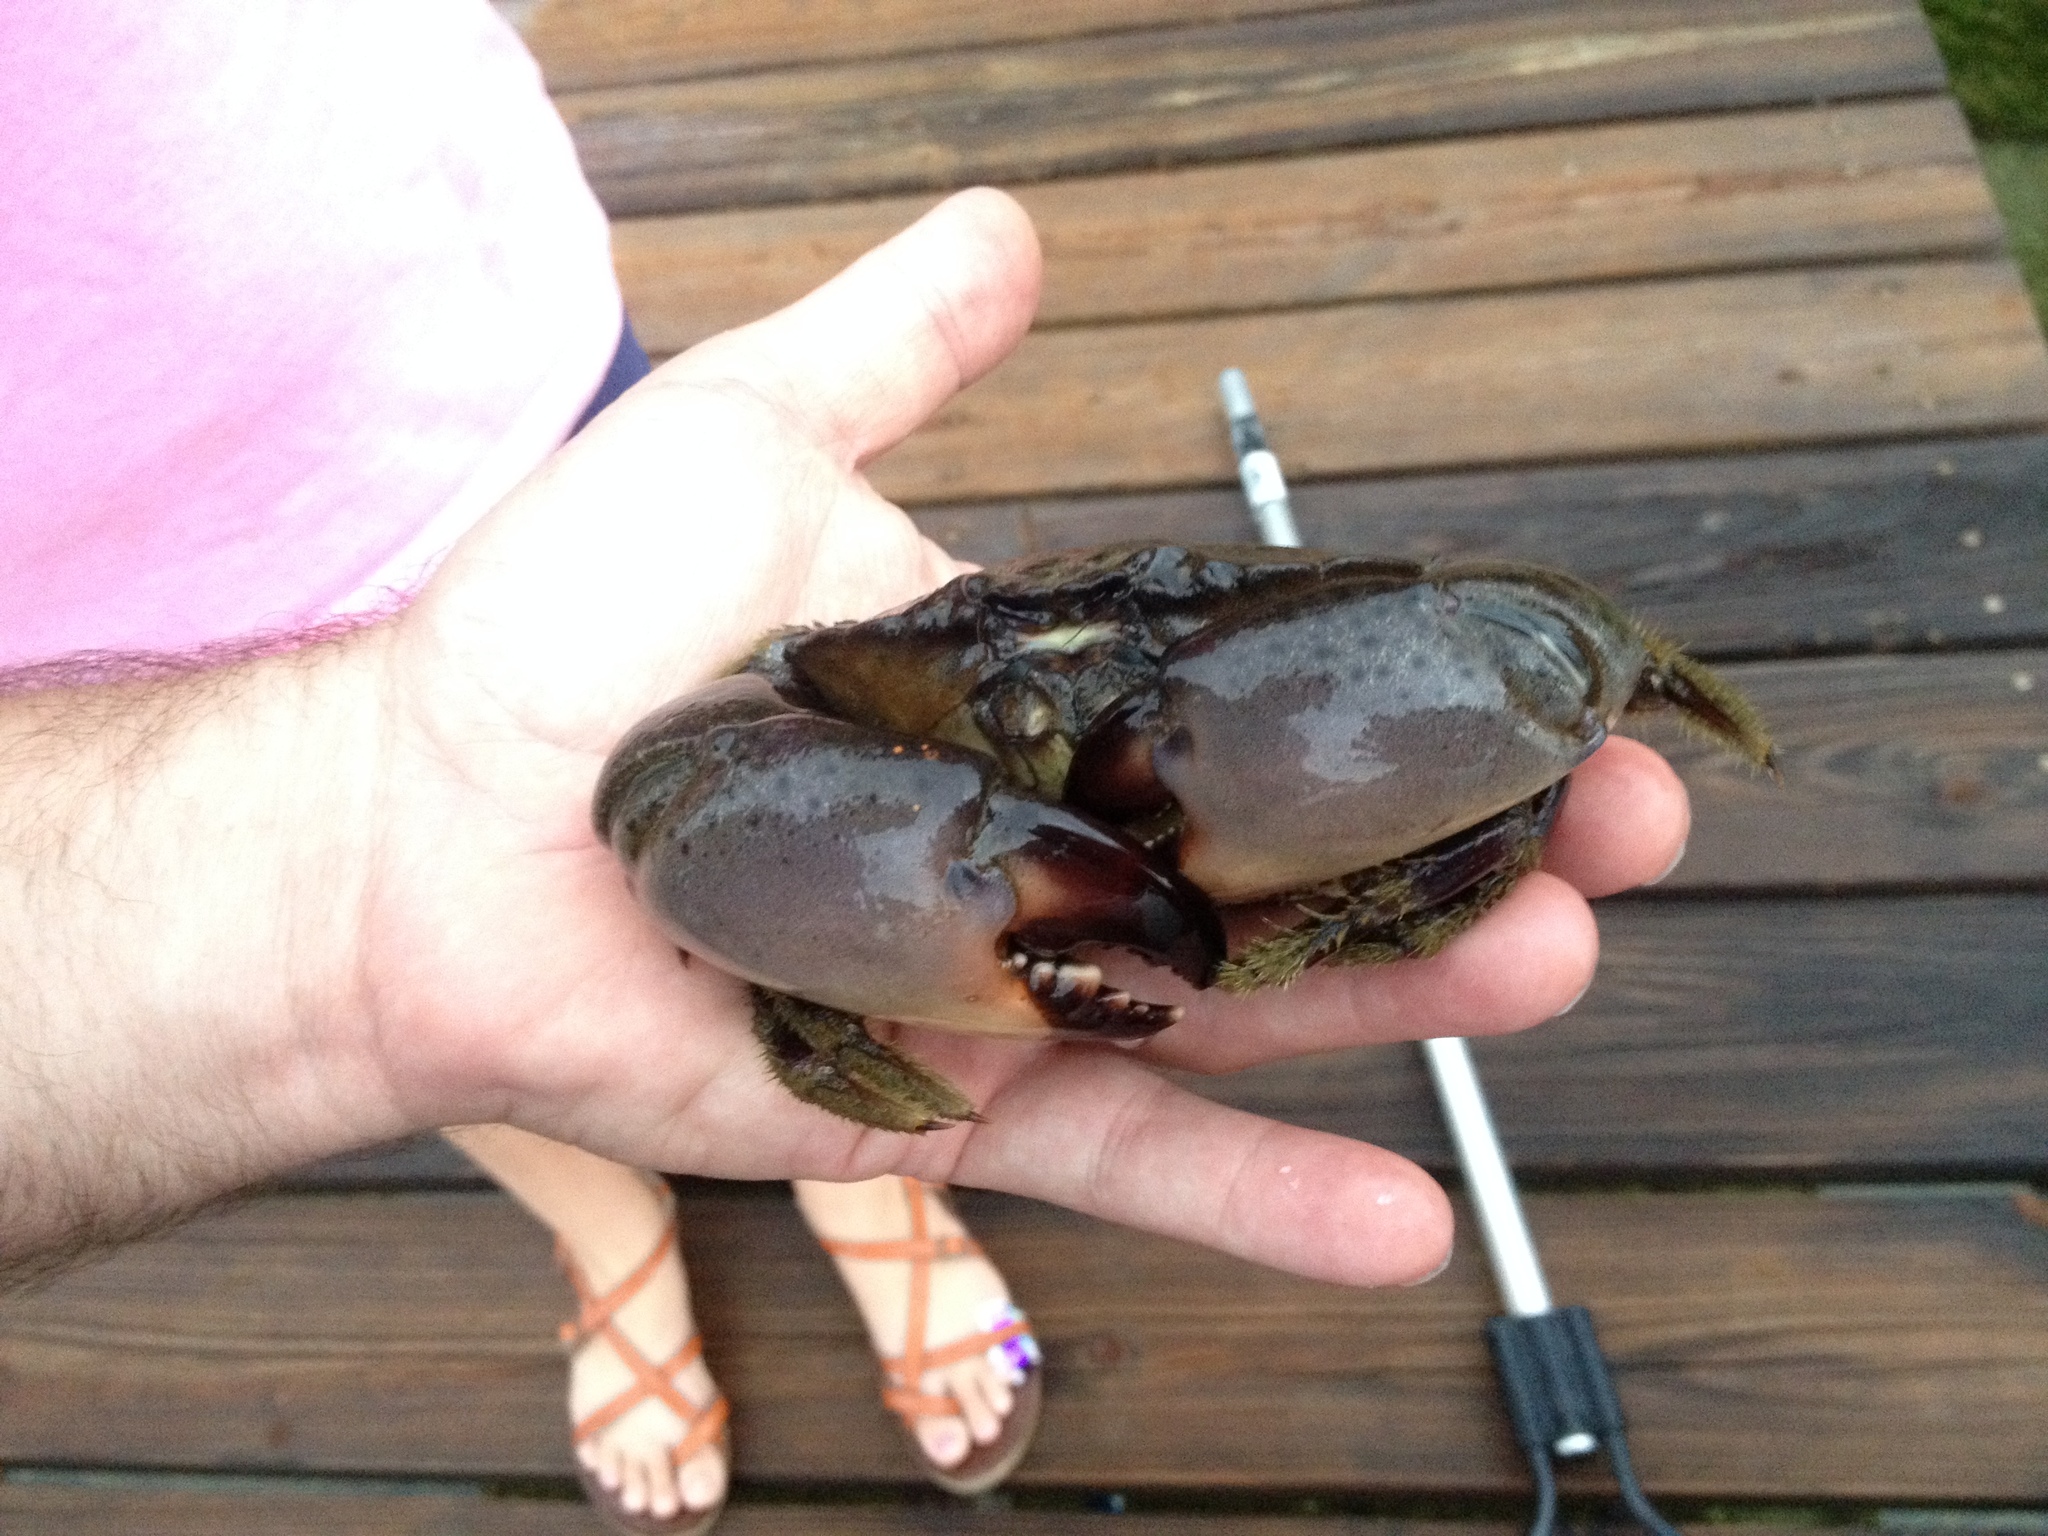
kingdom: Animalia
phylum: Arthropoda
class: Malacostraca
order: Decapoda
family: Menippidae
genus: Menippe
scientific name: Menippe mercenaria
